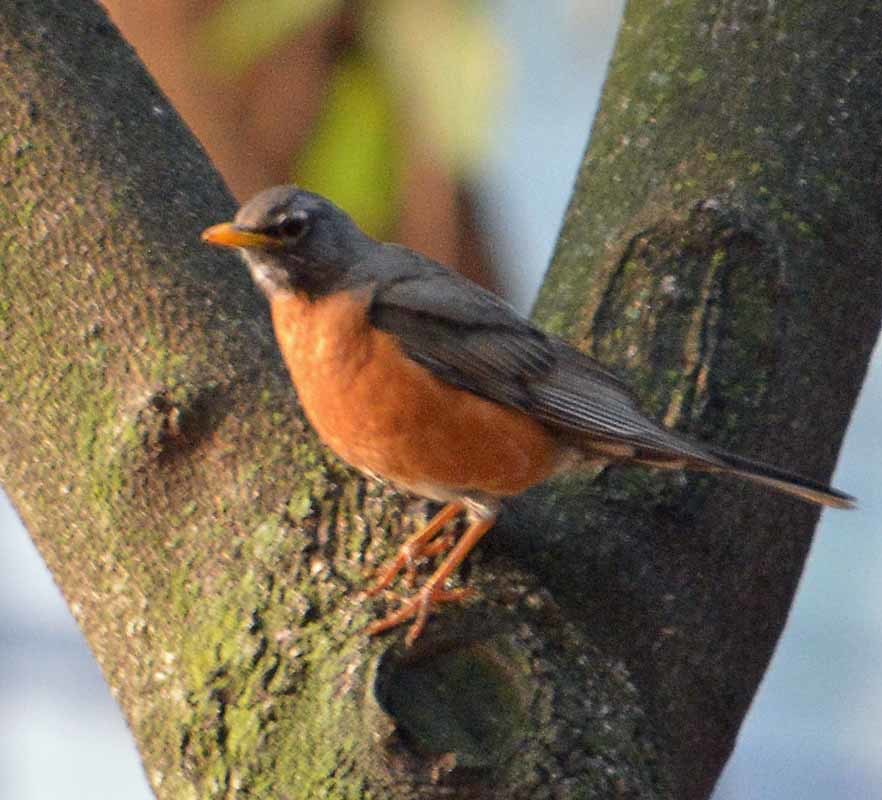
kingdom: Animalia
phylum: Chordata
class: Aves
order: Passeriformes
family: Turdidae
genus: Turdus
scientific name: Turdus migratorius
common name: American robin
